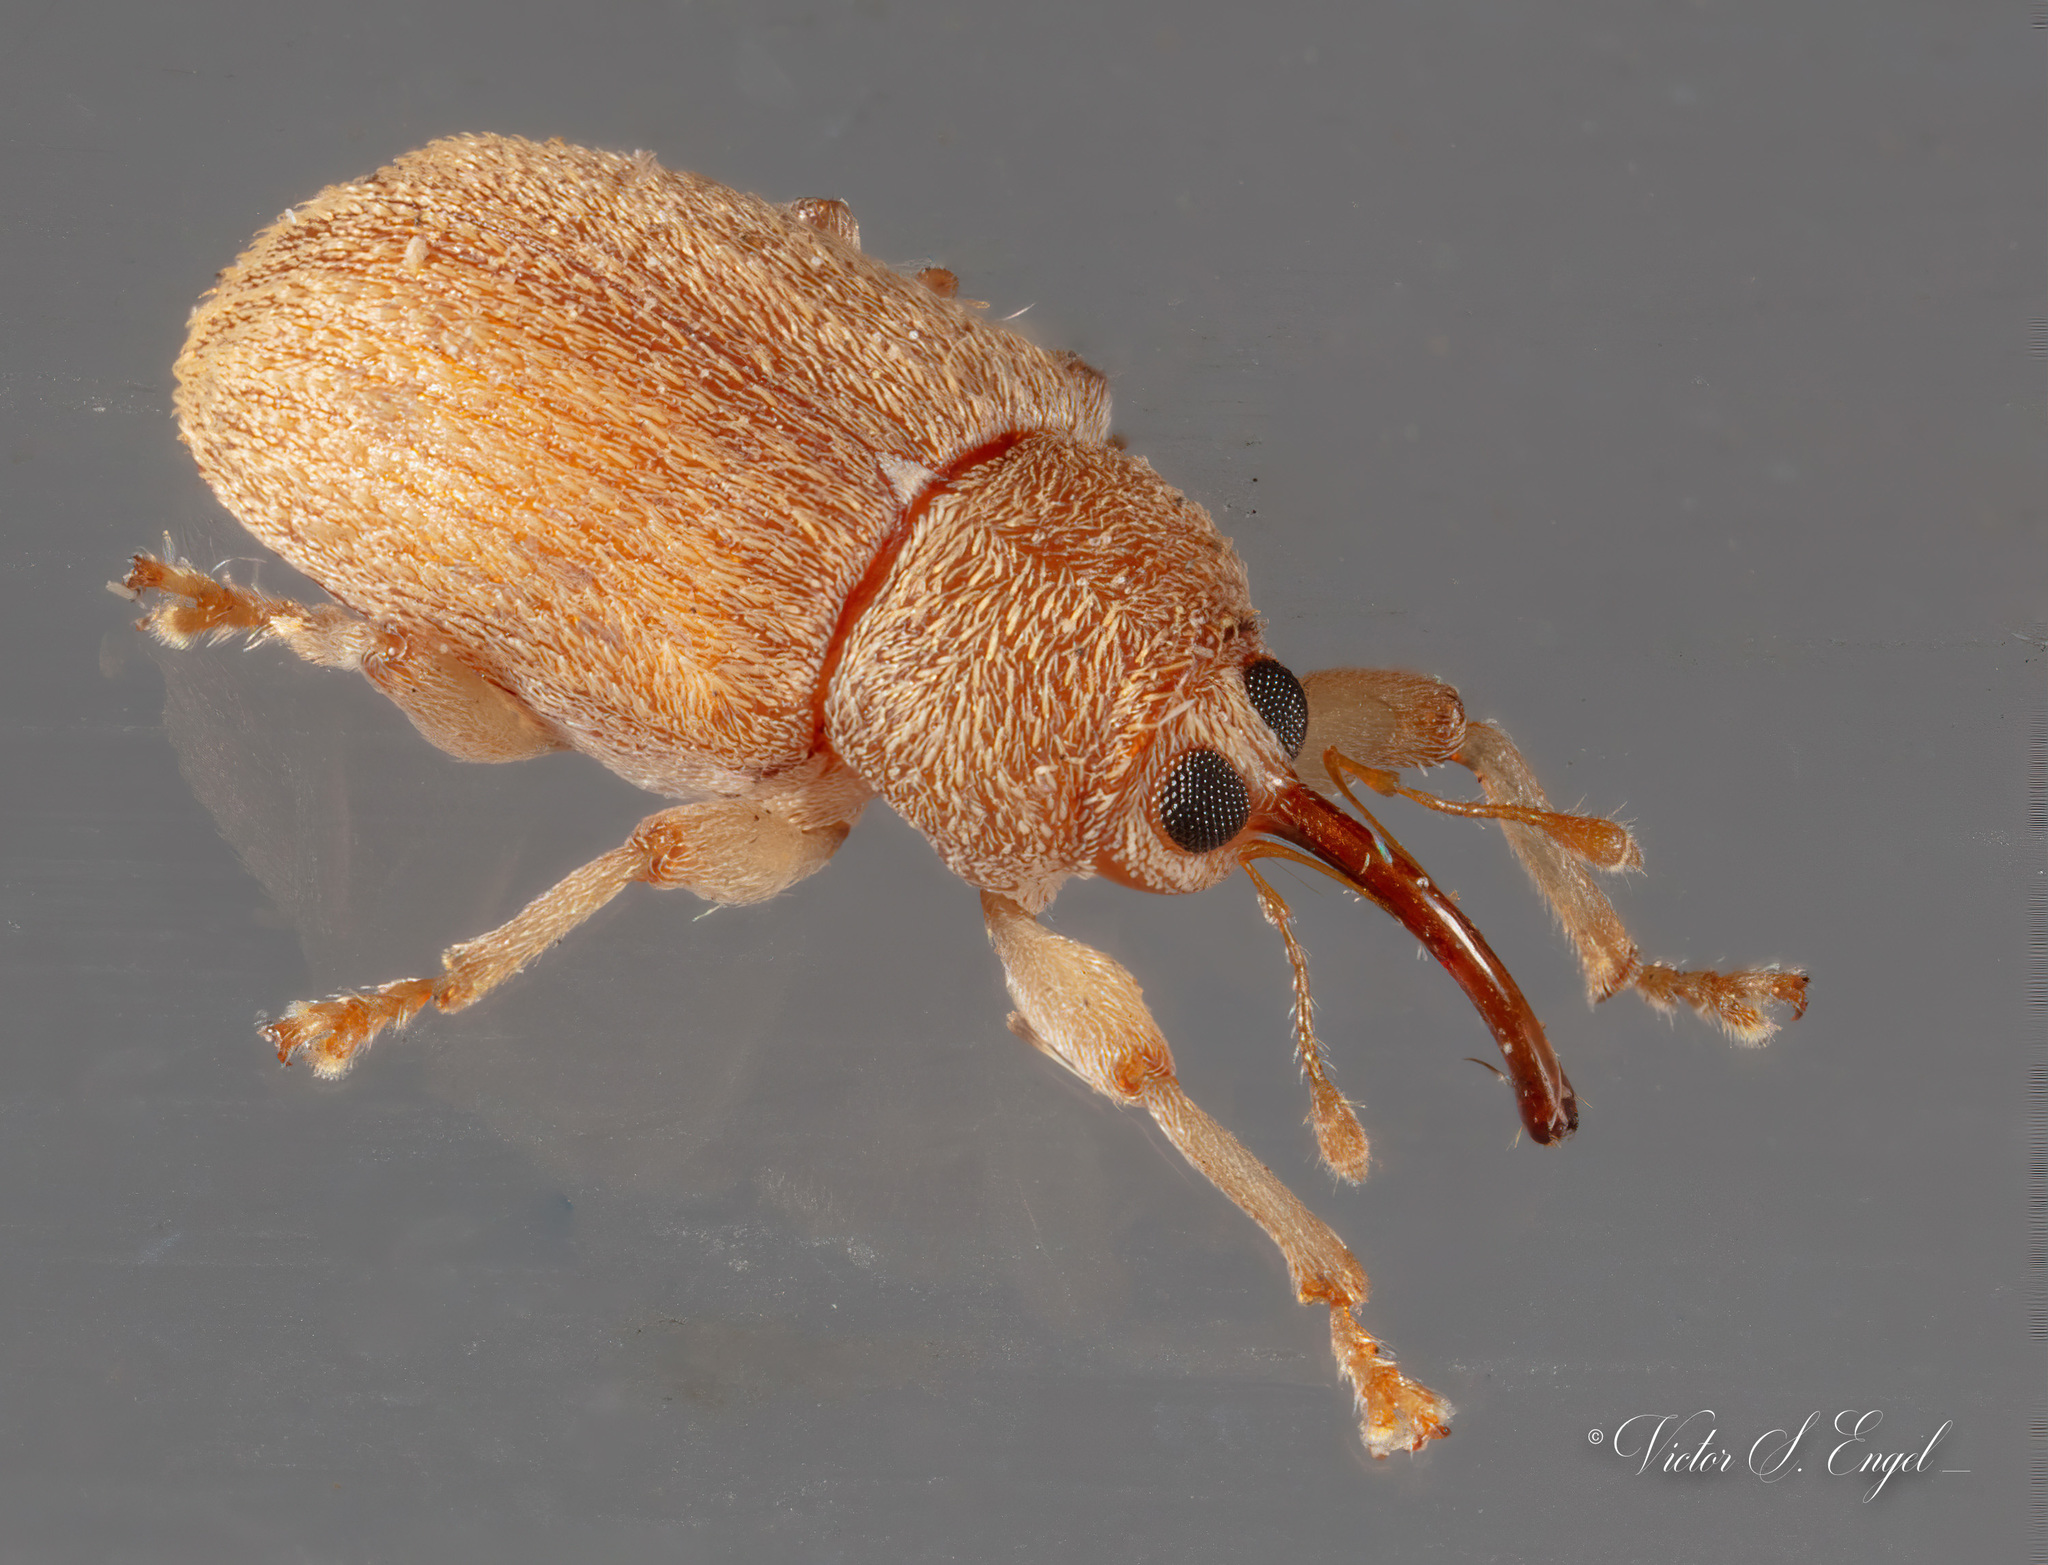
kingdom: Animalia
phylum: Arthropoda
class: Insecta
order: Coleoptera
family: Curculionidae
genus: Lignyodes
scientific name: Lignyodes helvolus
